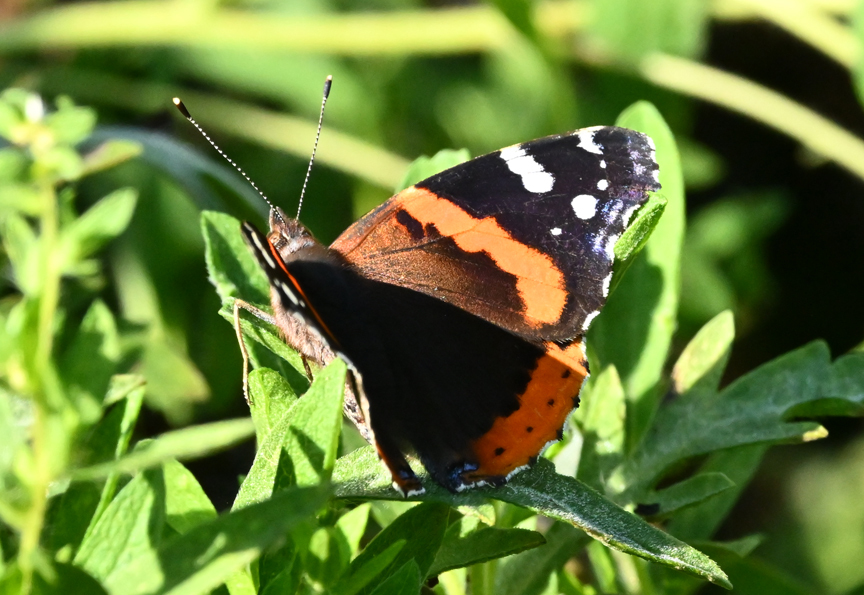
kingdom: Animalia
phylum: Arthropoda
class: Insecta
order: Lepidoptera
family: Nymphalidae
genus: Vanessa
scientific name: Vanessa atalanta
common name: Red admiral
